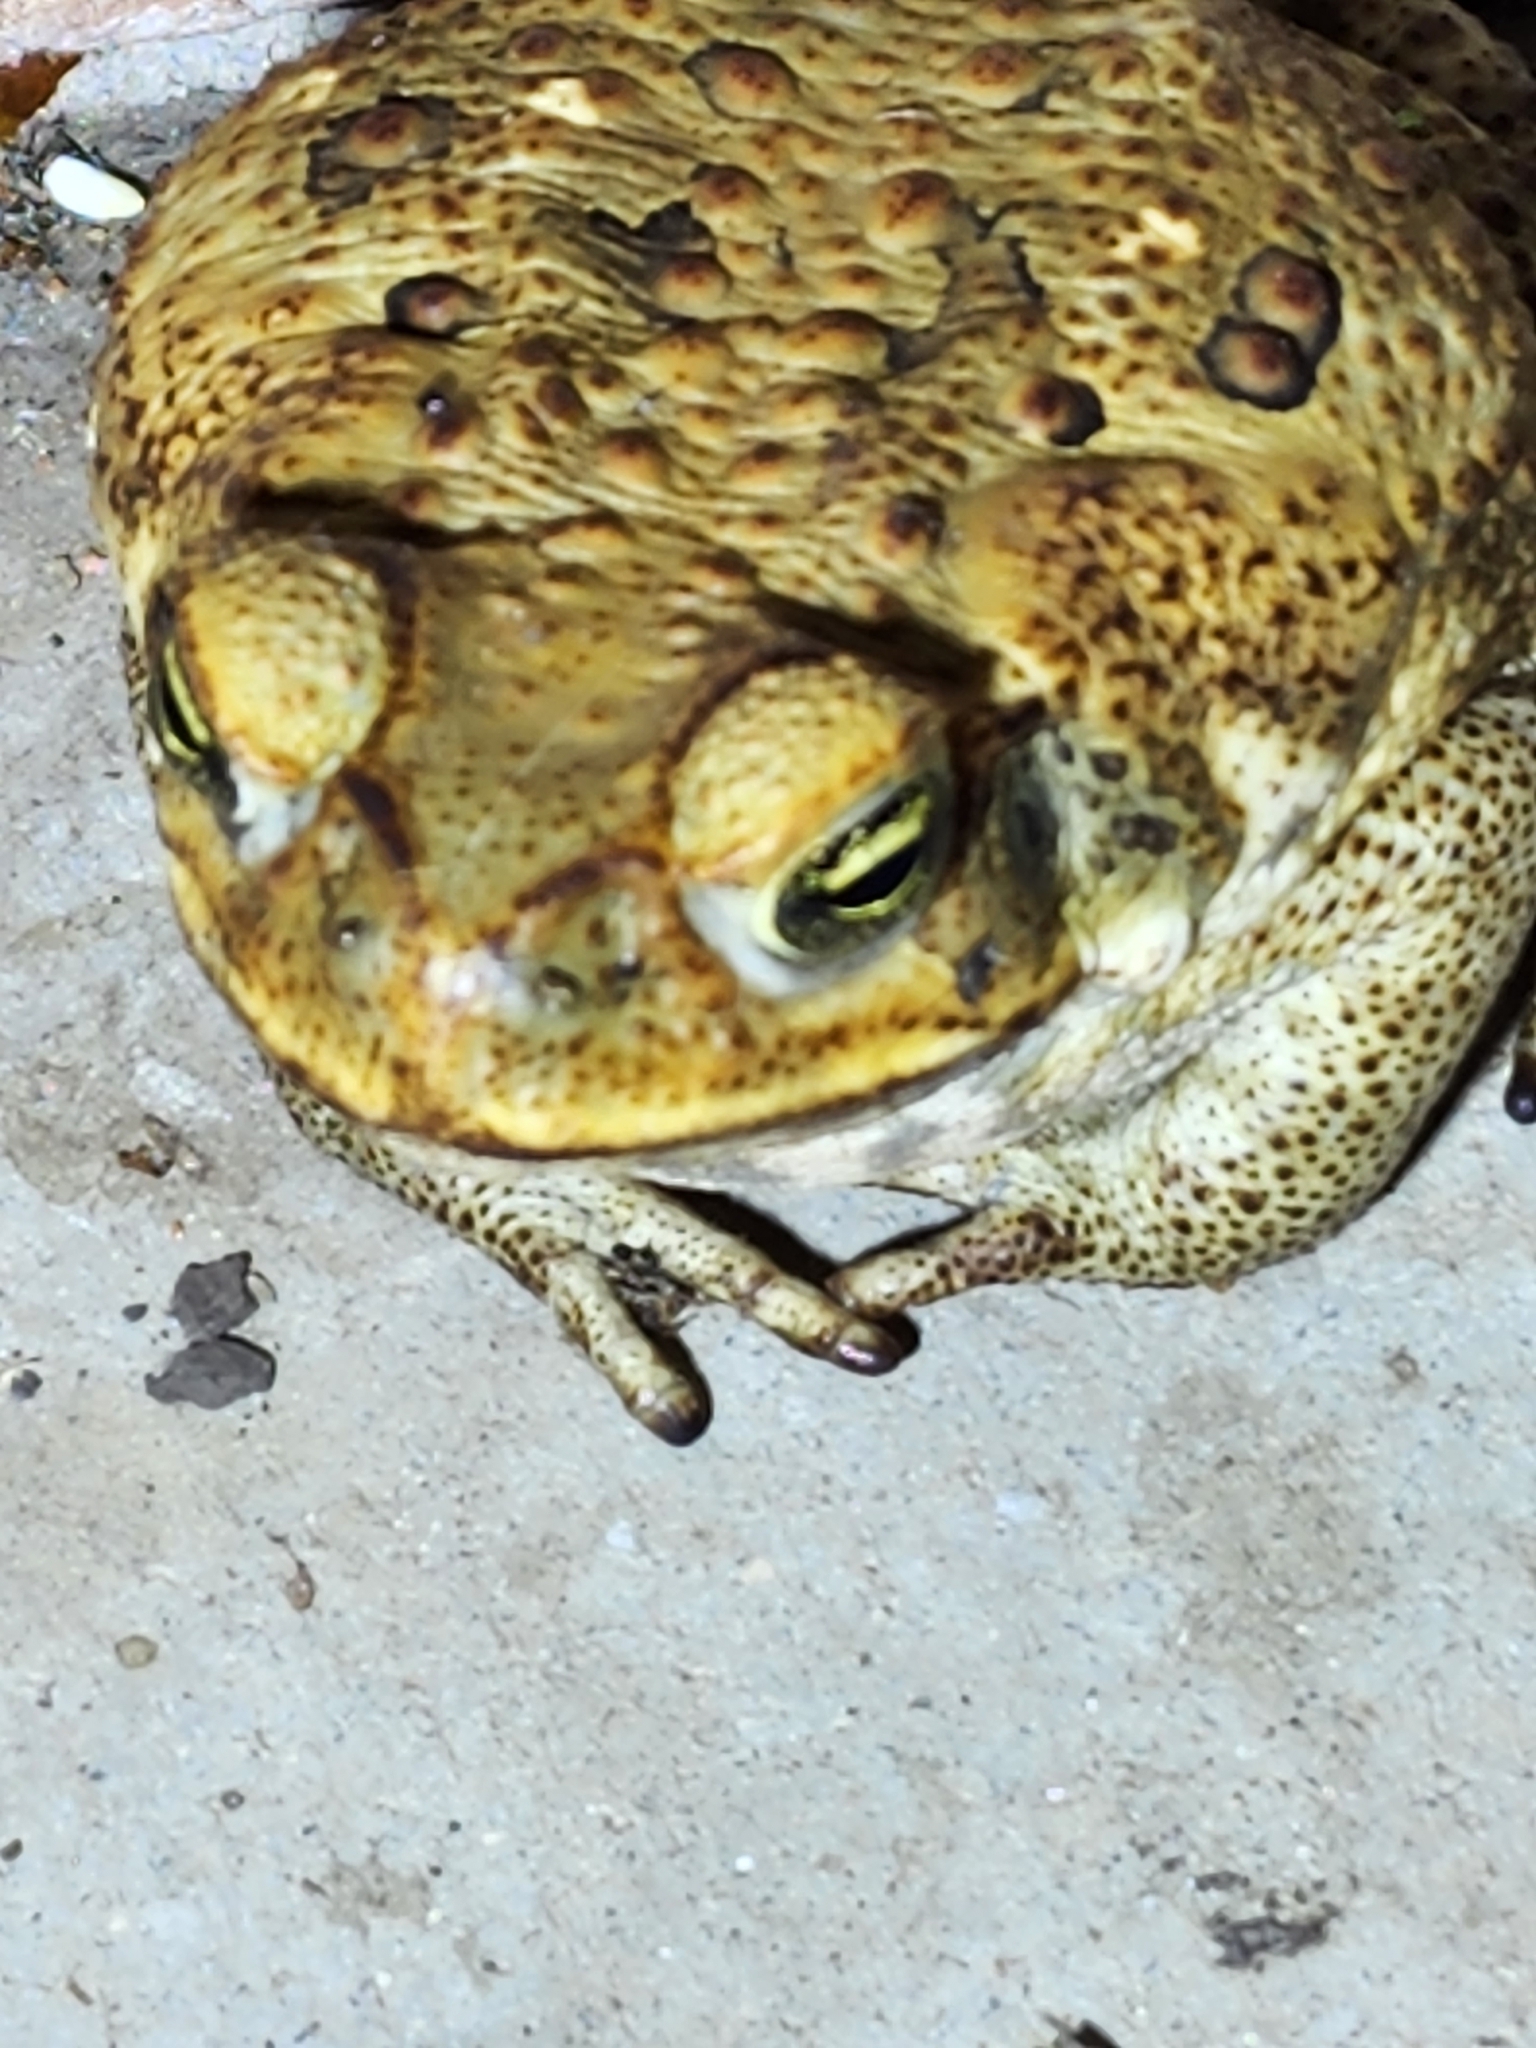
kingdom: Animalia
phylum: Chordata
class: Amphibia
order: Anura
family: Bufonidae
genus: Rhinella
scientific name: Rhinella marina
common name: Cane toad
